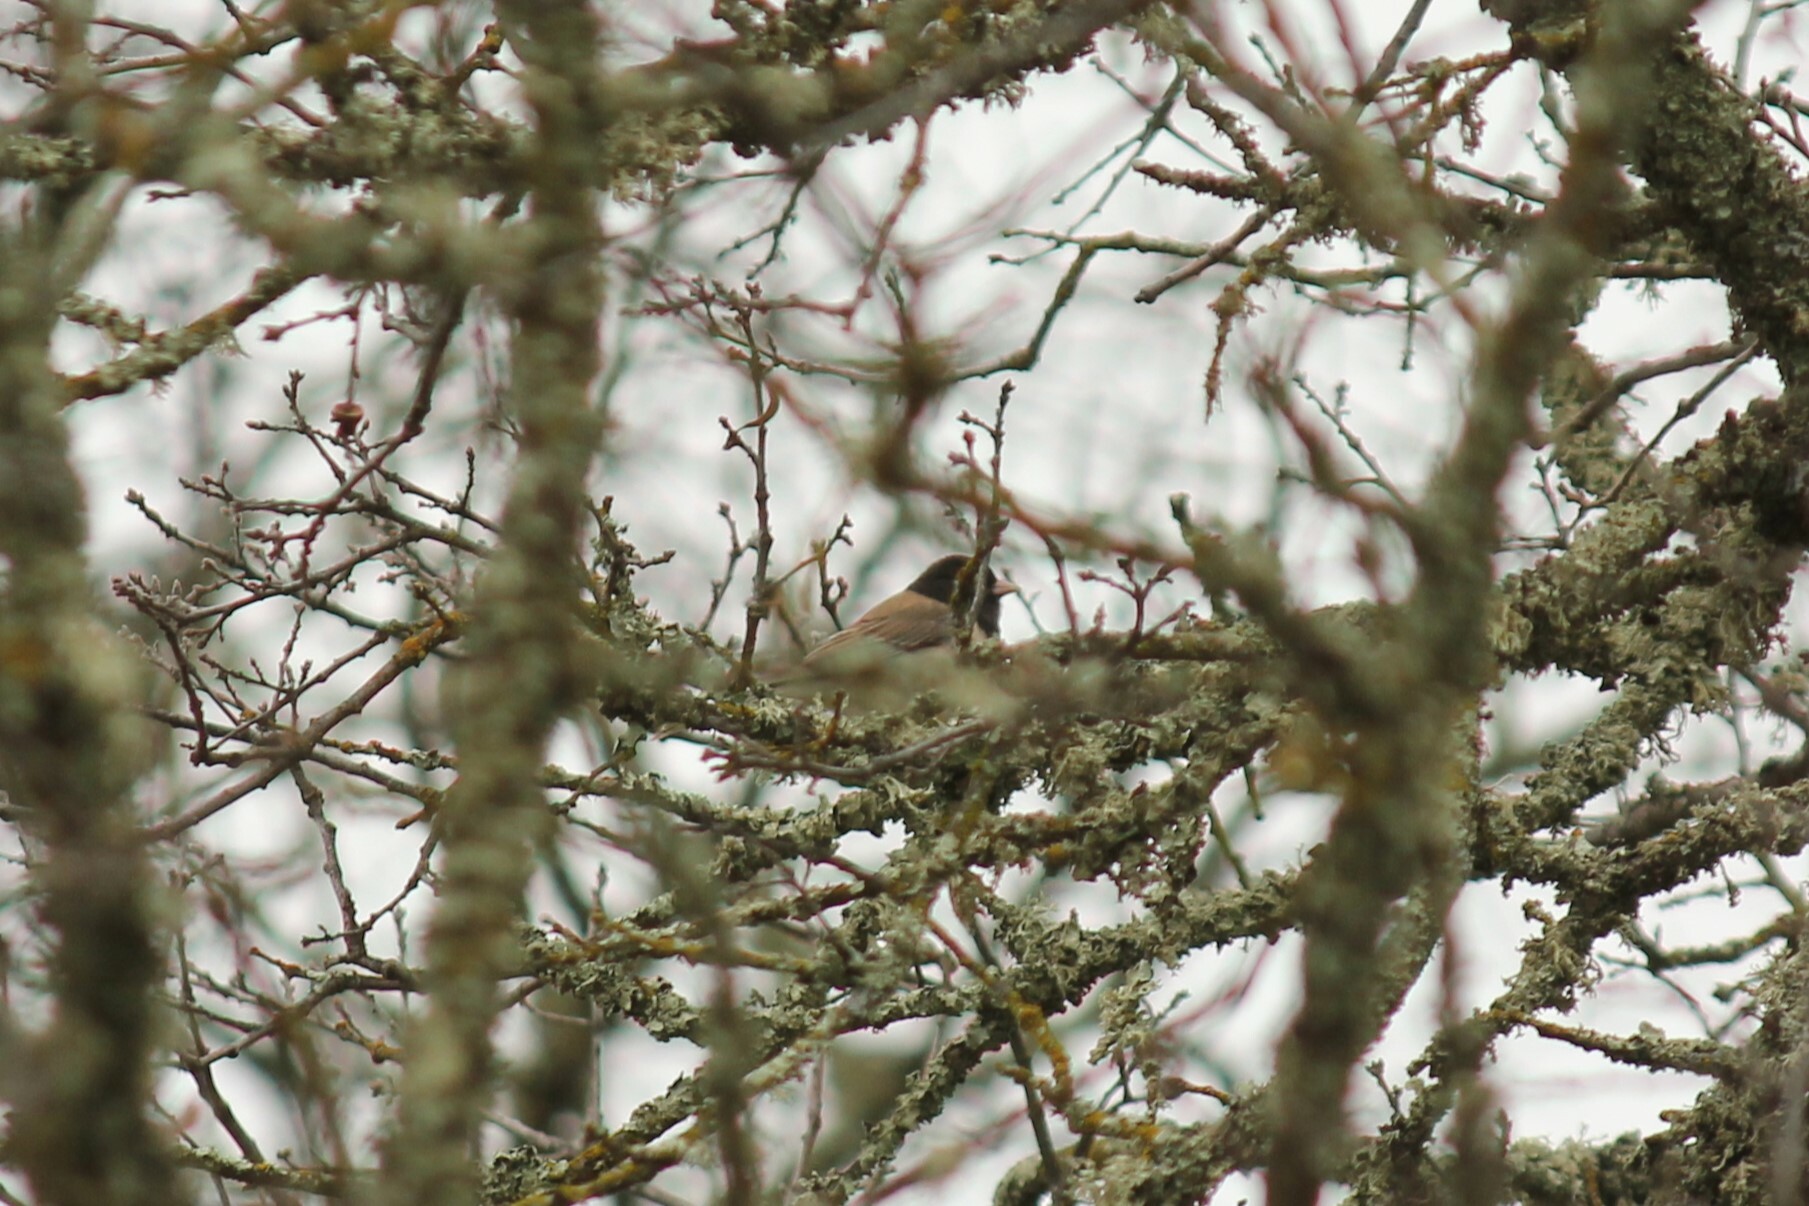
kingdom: Animalia
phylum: Chordata
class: Aves
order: Passeriformes
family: Passerellidae
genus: Junco
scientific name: Junco hyemalis
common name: Dark-eyed junco
